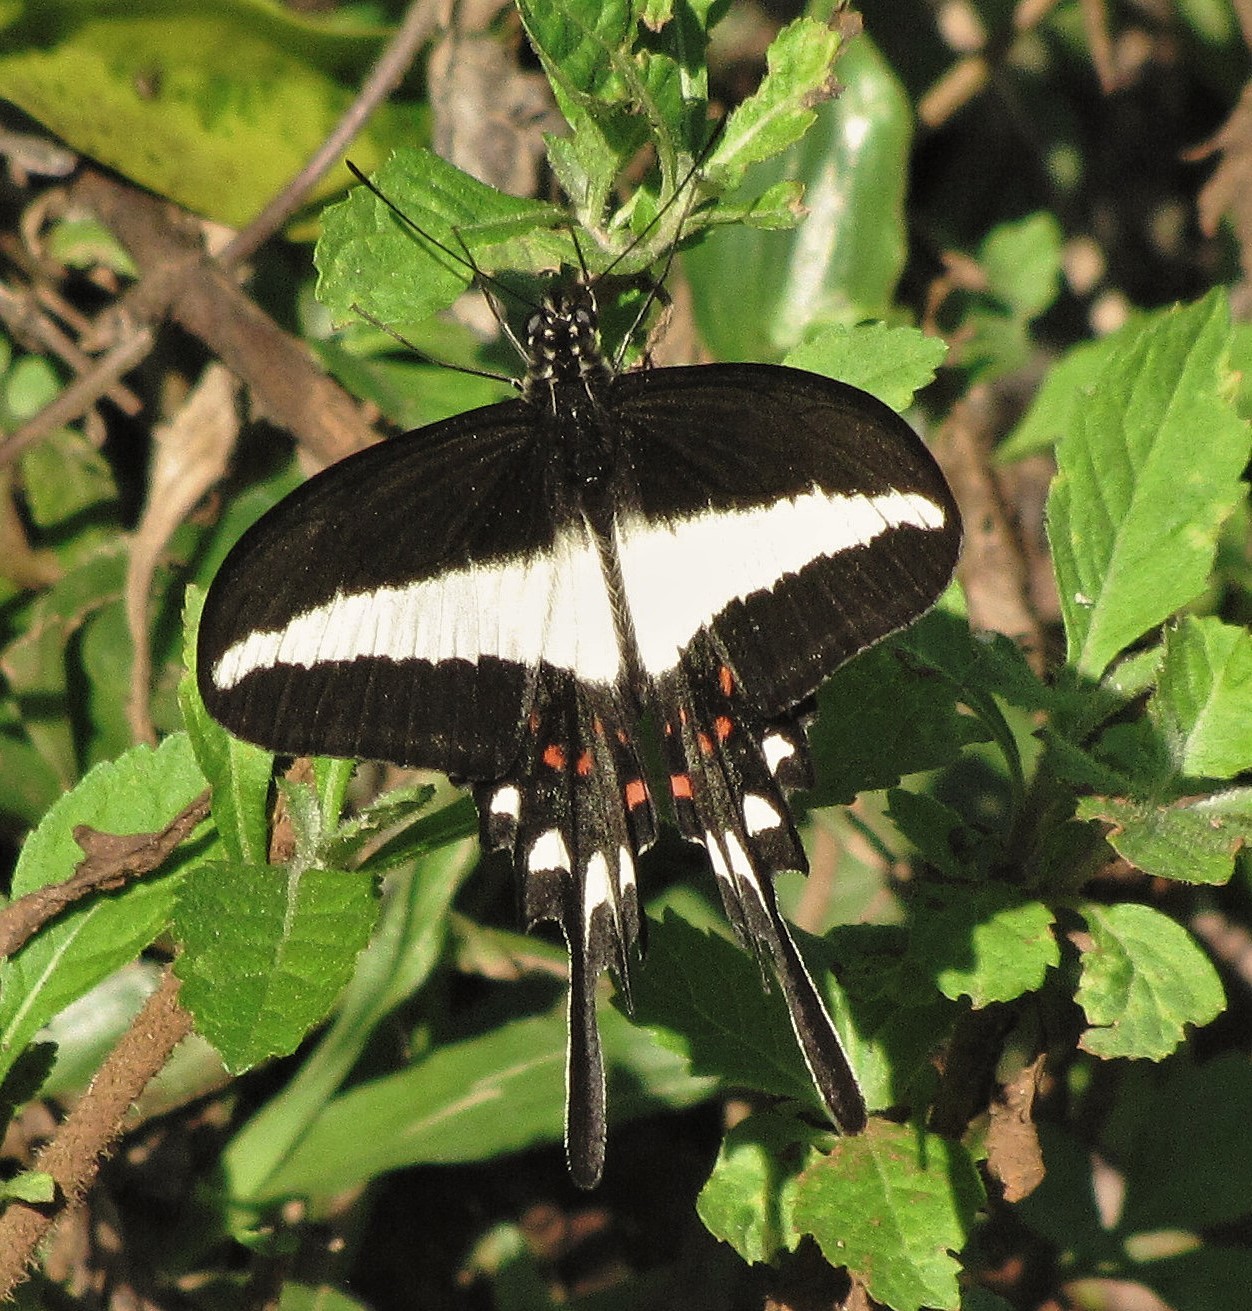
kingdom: Animalia
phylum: Arthropoda
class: Insecta
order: Lepidoptera
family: Papilionidae
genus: Heraclides
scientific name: Heraclides hectorides
